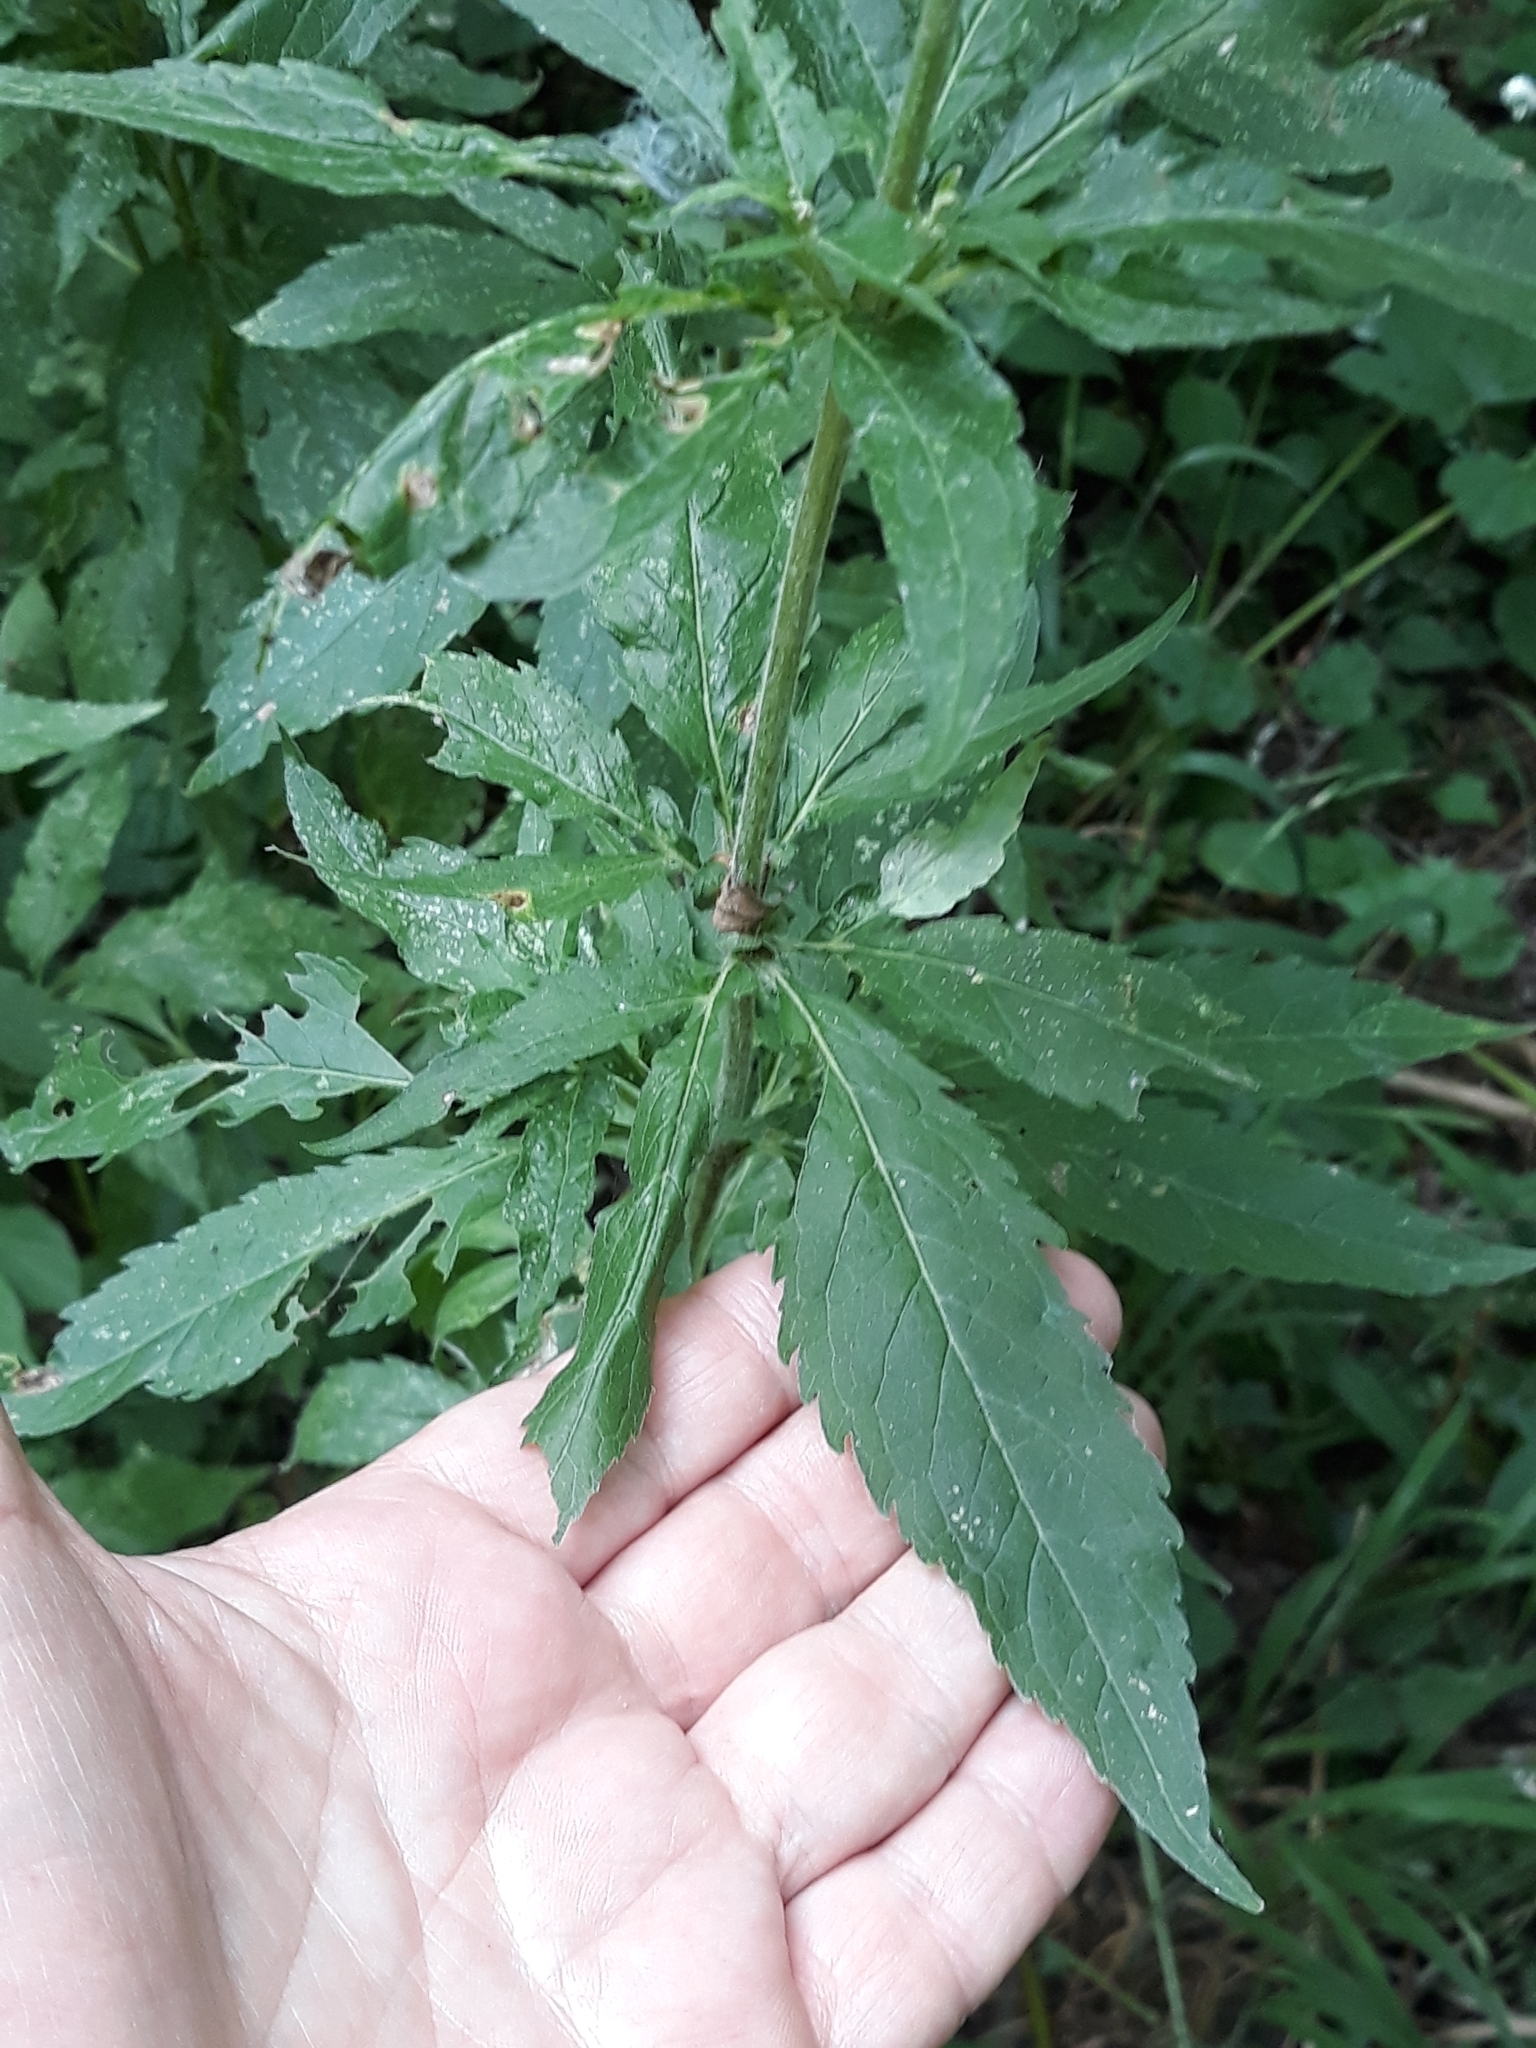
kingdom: Plantae
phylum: Tracheophyta
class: Magnoliopsida
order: Asterales
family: Asteraceae
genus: Eupatorium
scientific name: Eupatorium cannabinum
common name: Hemp-agrimony
